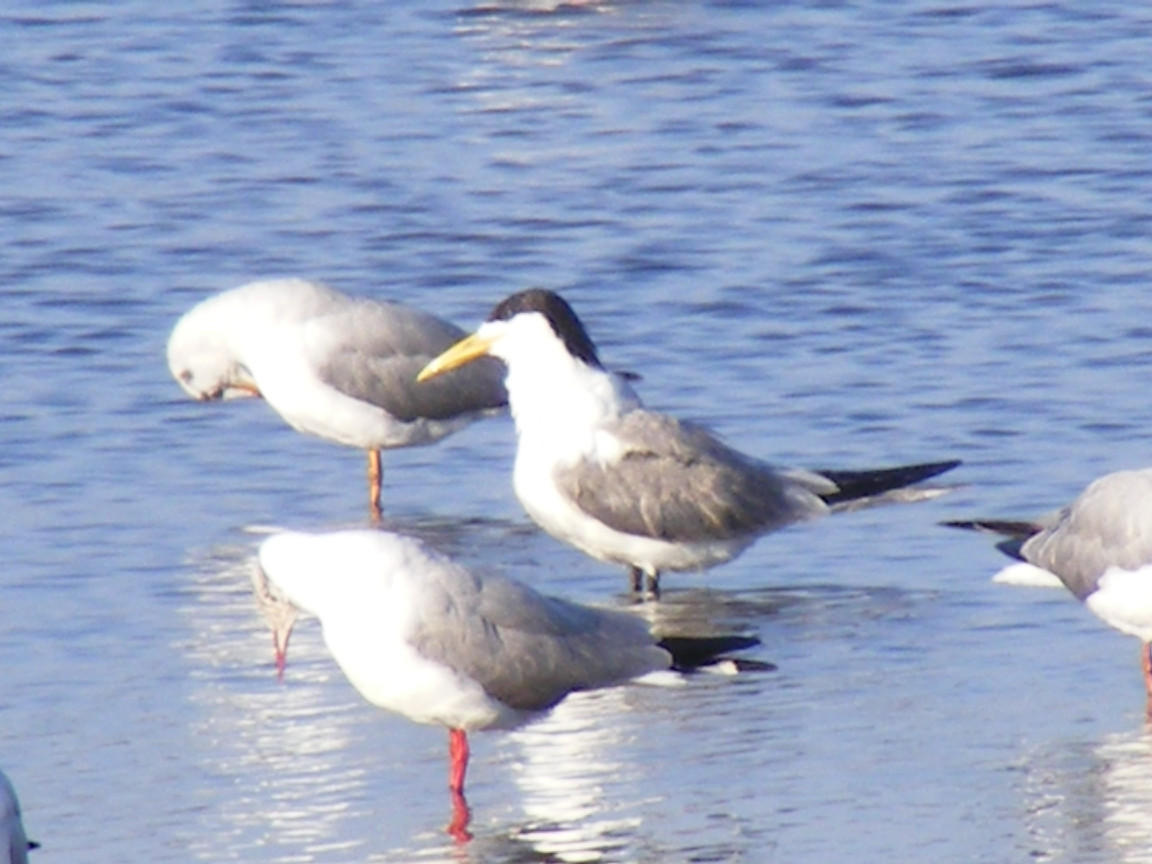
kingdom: Animalia
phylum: Chordata
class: Aves
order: Charadriiformes
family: Laridae
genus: Thalasseus
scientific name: Thalasseus bergii
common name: Greater crested tern
